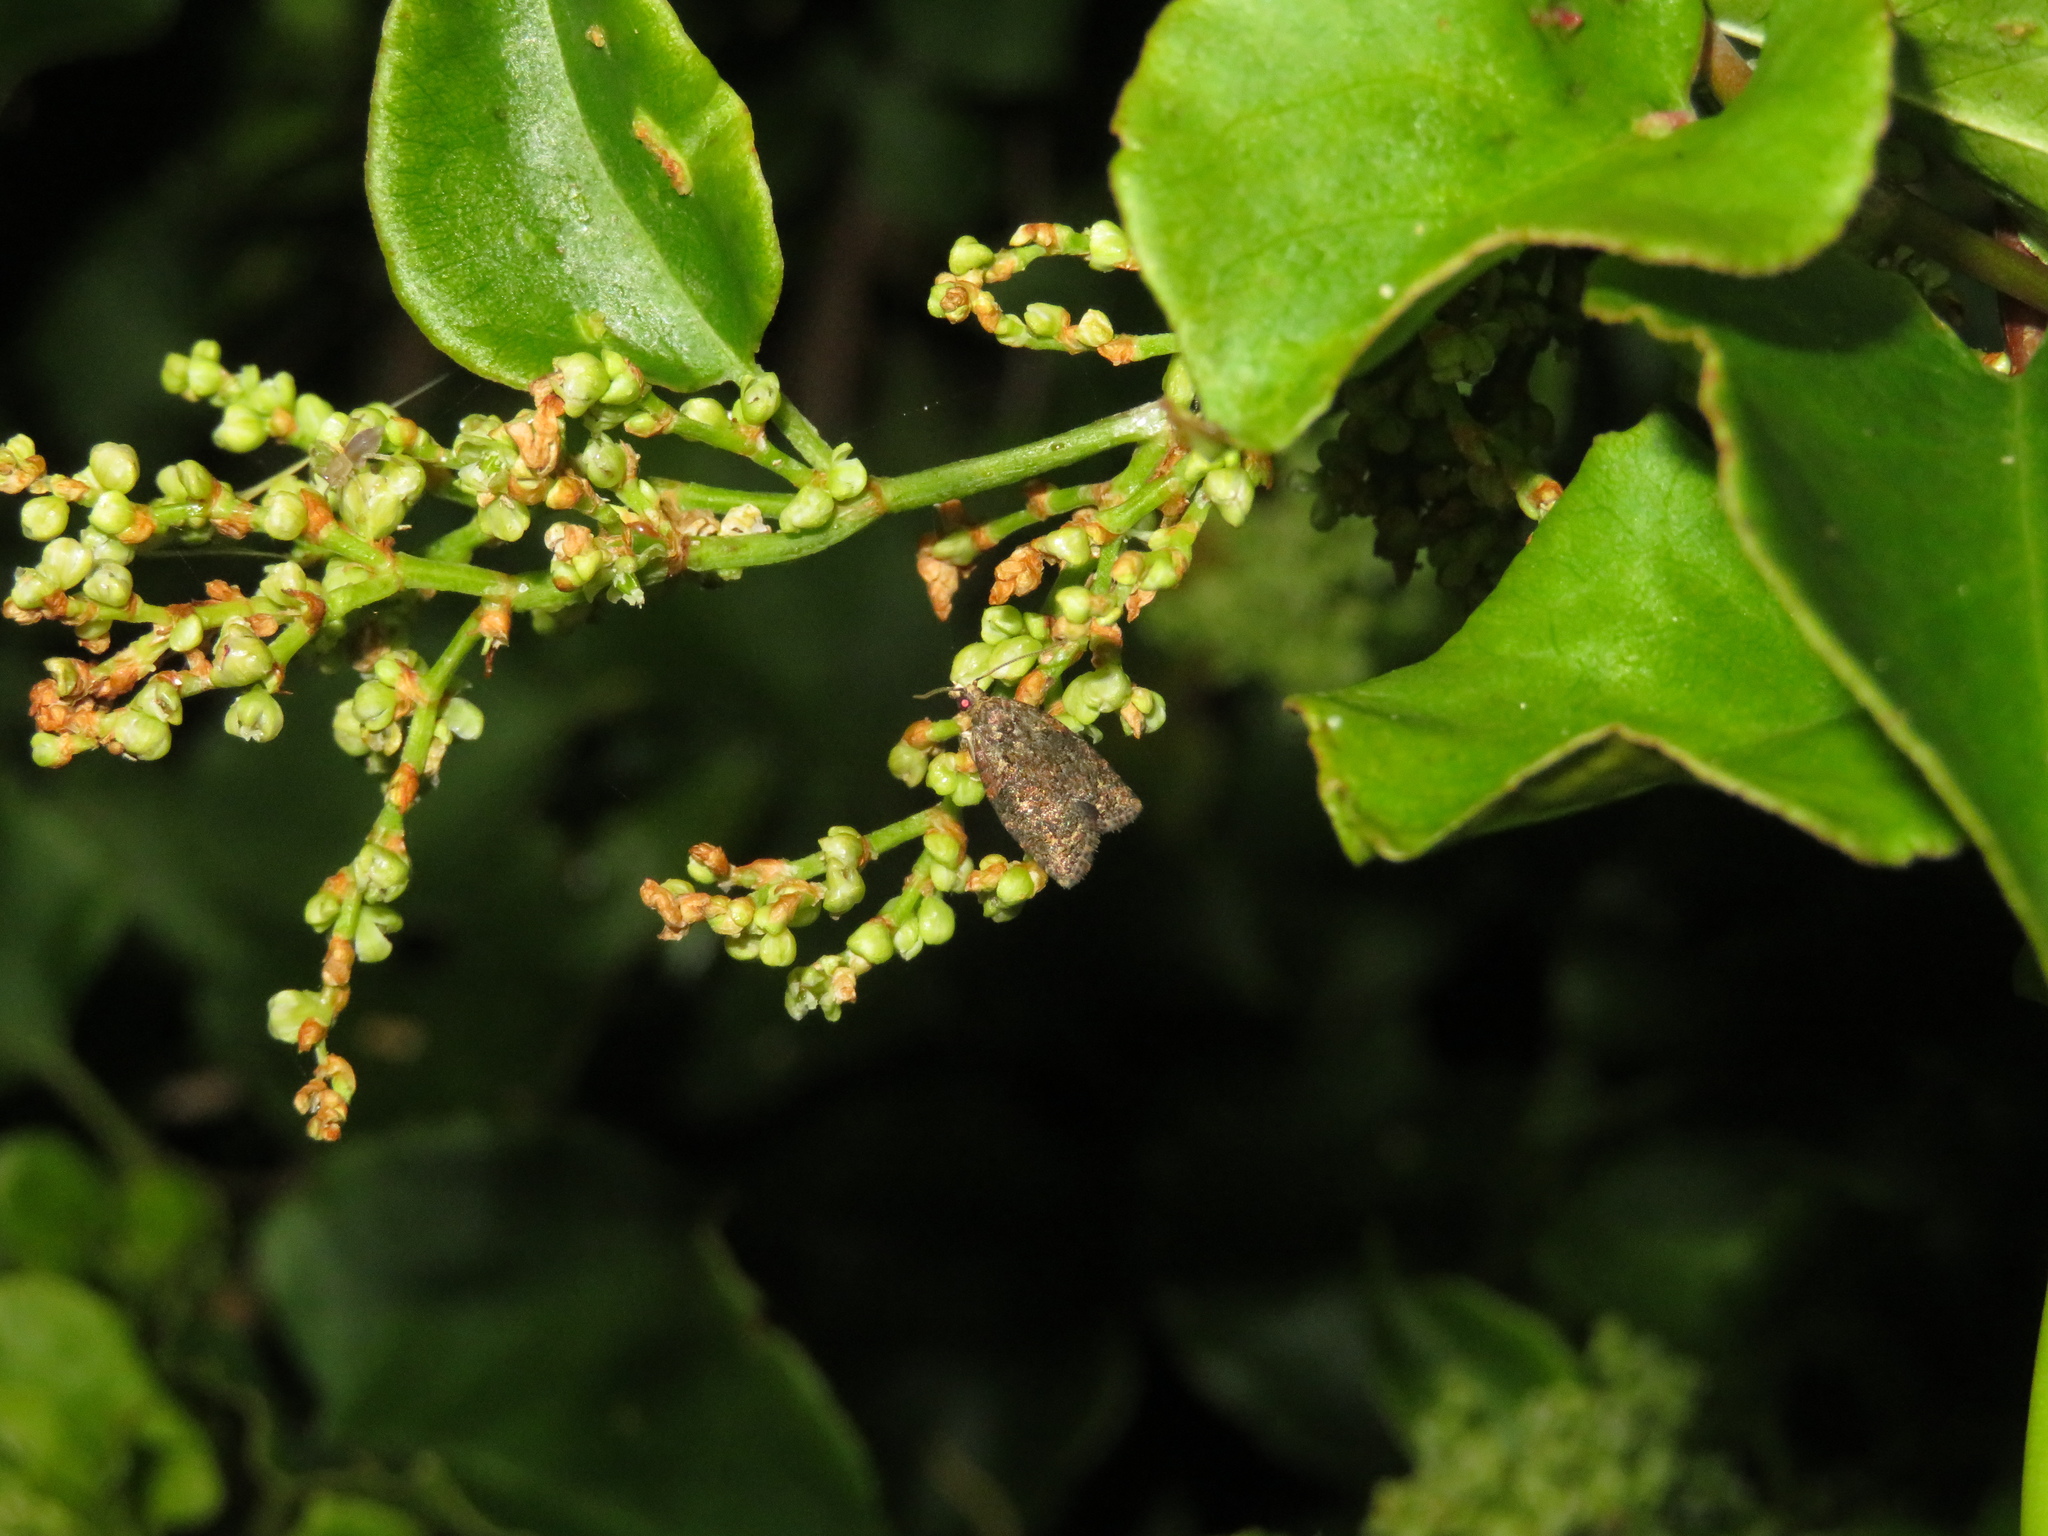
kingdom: Animalia
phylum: Arthropoda
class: Insecta
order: Lepidoptera
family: Tortricidae
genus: Capua
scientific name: Capua intractana
